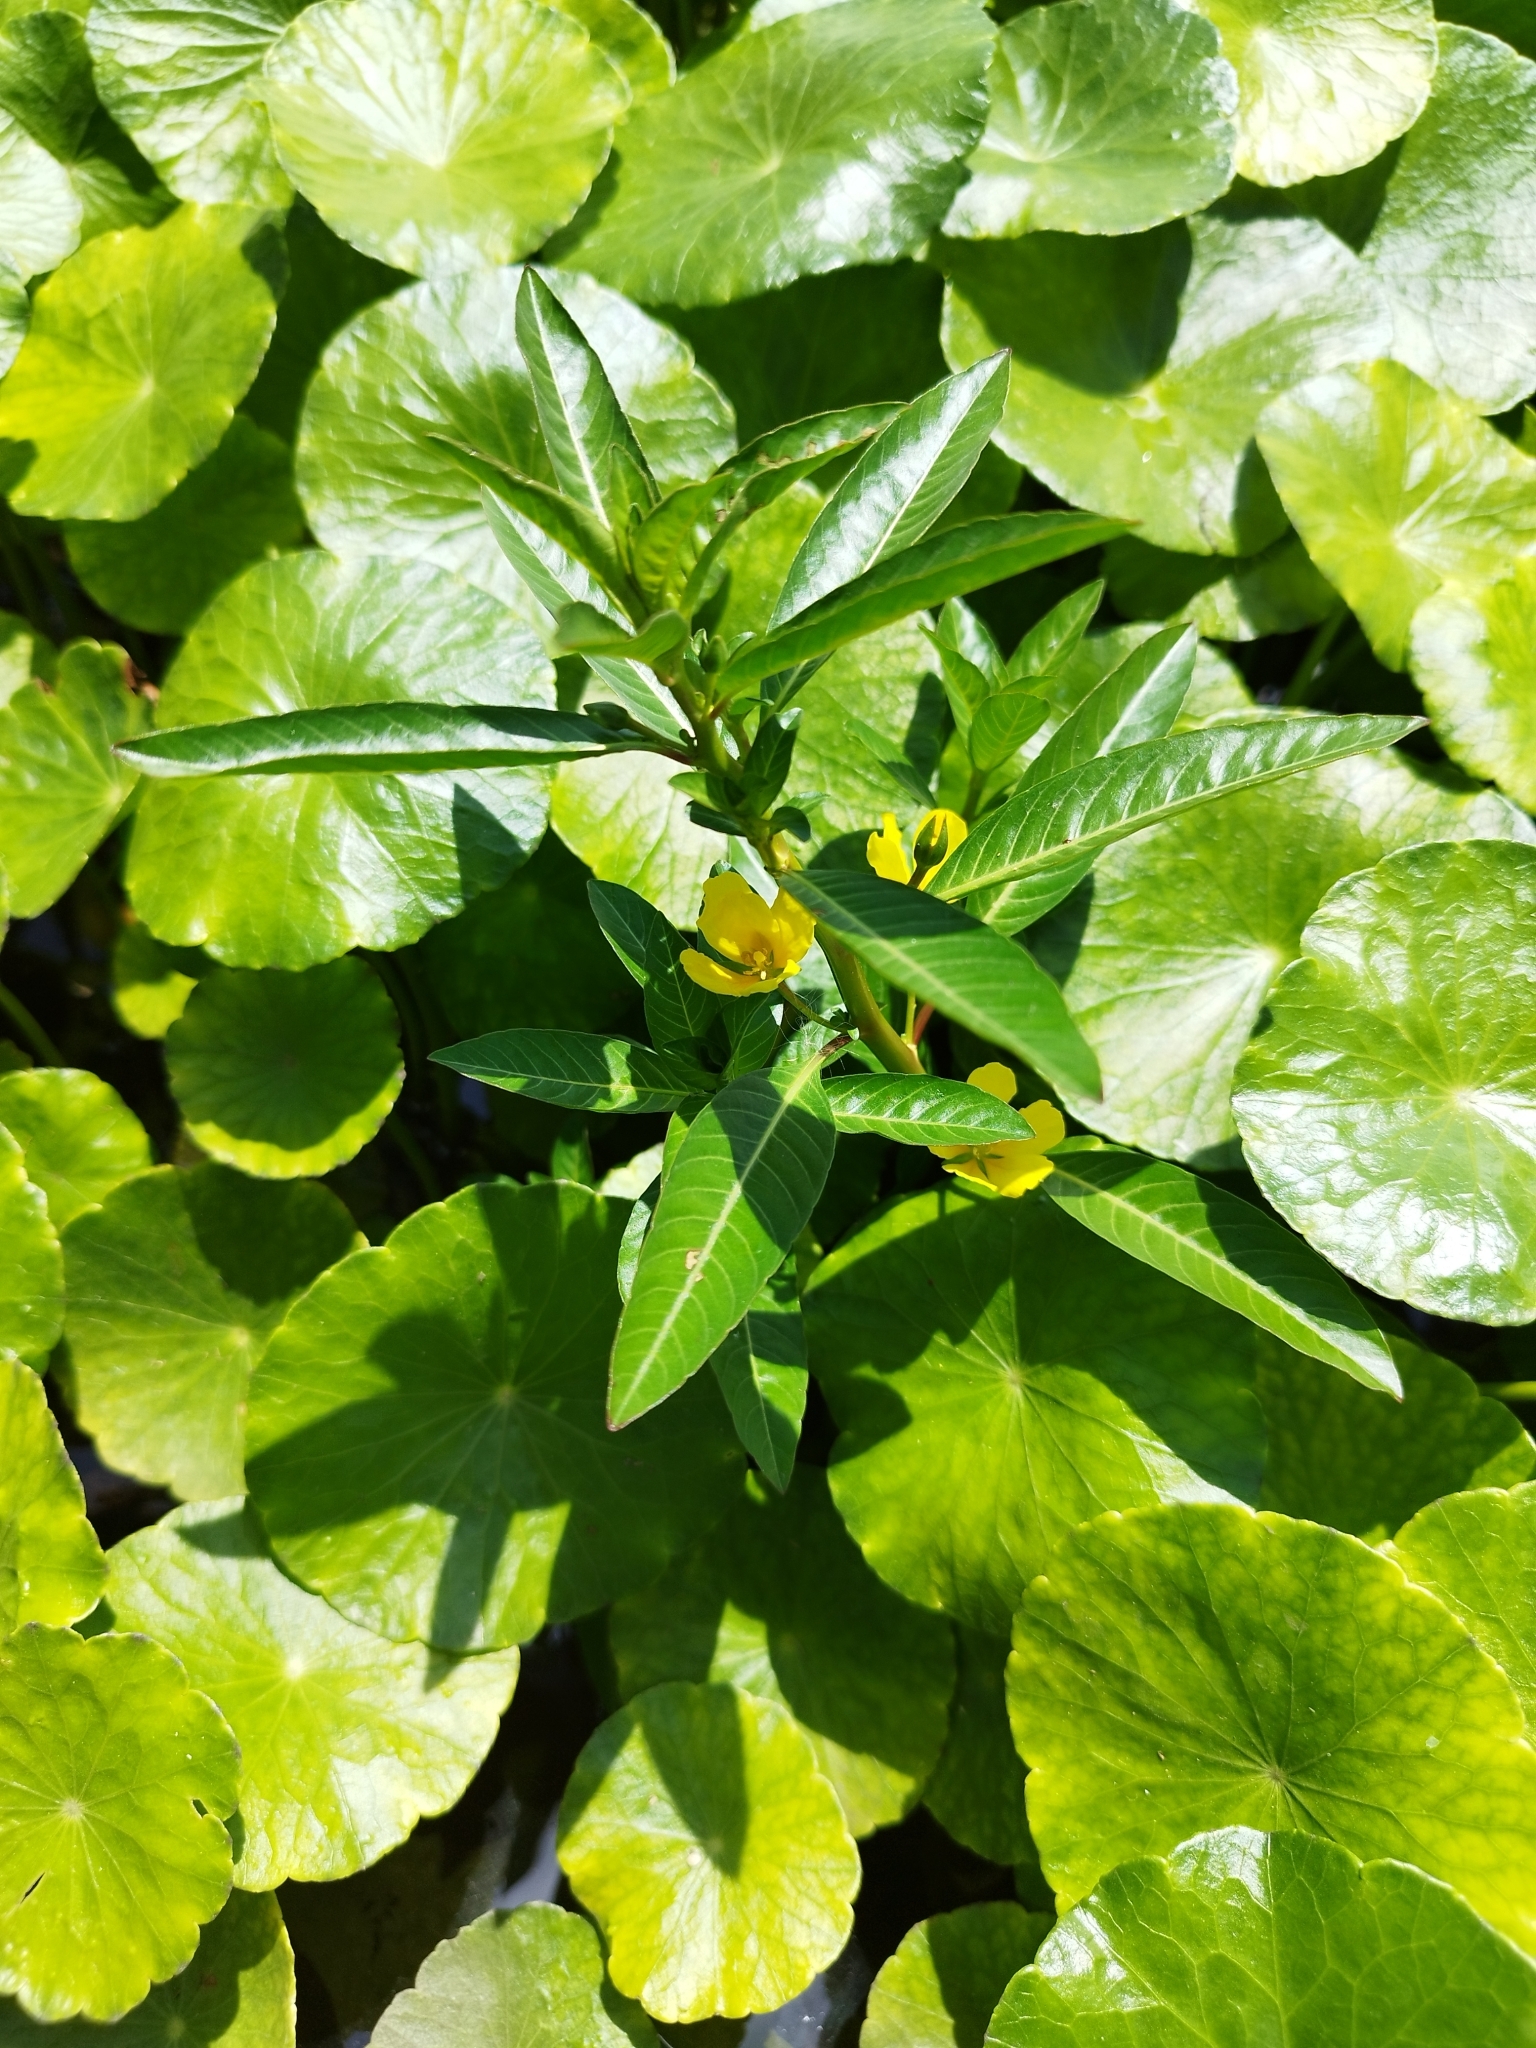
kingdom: Plantae
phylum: Tracheophyta
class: Magnoliopsida
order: Myrtales
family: Onagraceae
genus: Ludwigia
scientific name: Ludwigia peploides
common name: Floating primrose-willow
